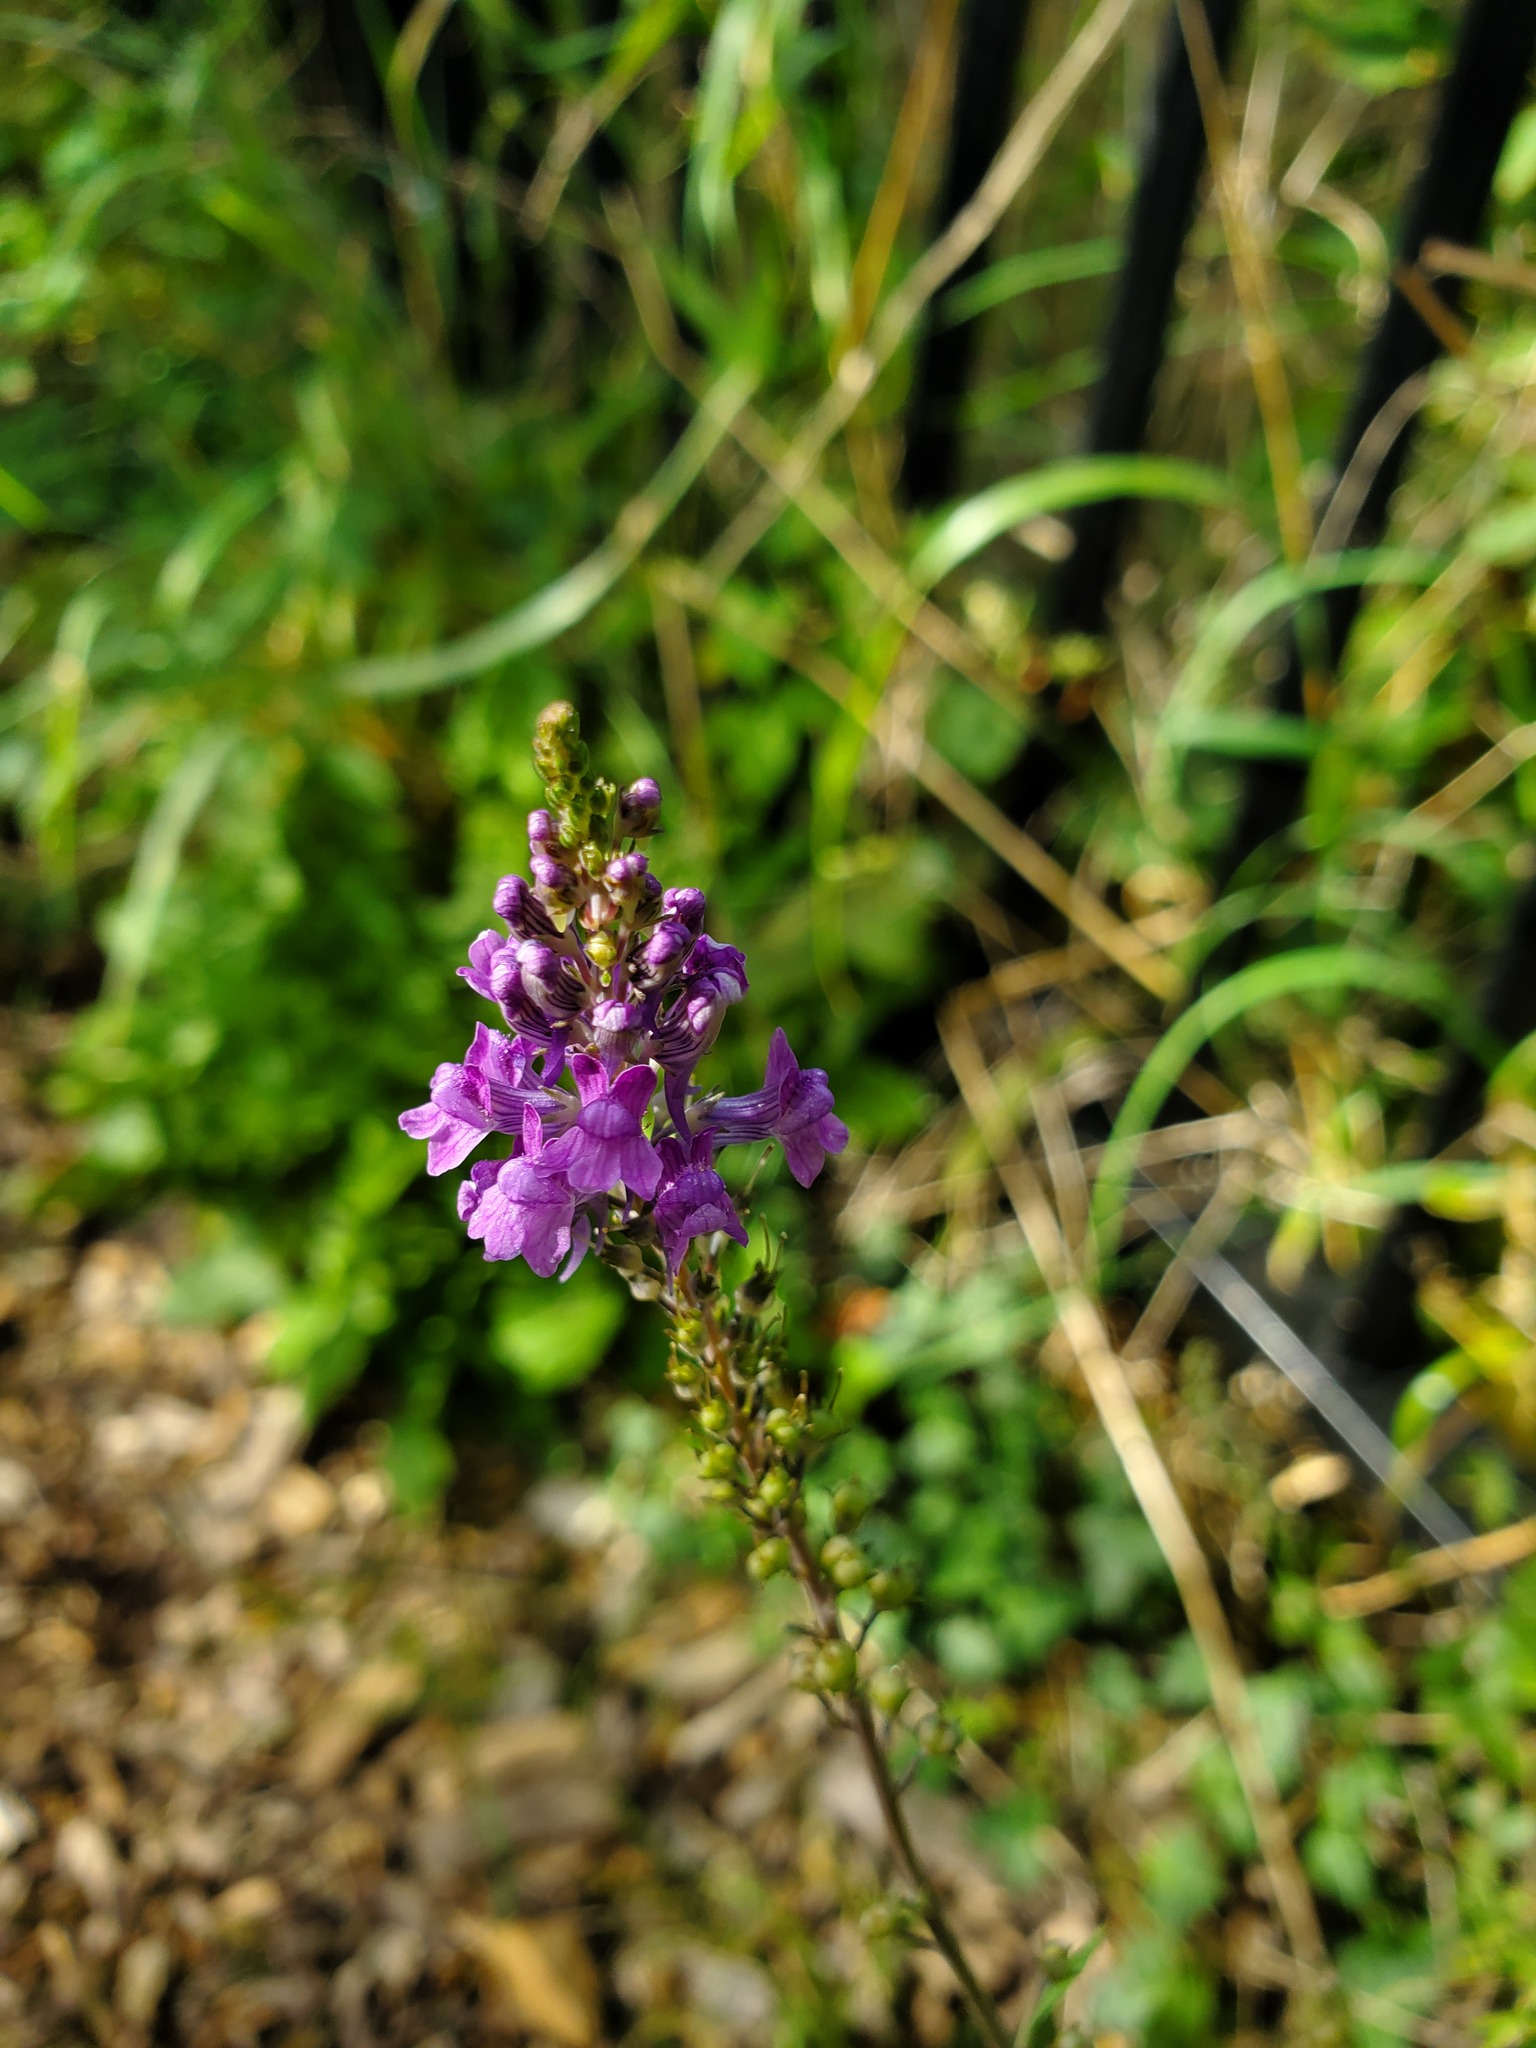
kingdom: Plantae
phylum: Tracheophyta
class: Magnoliopsida
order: Lamiales
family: Plantaginaceae
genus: Linaria
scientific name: Linaria purpurea
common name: Purple toadflax
